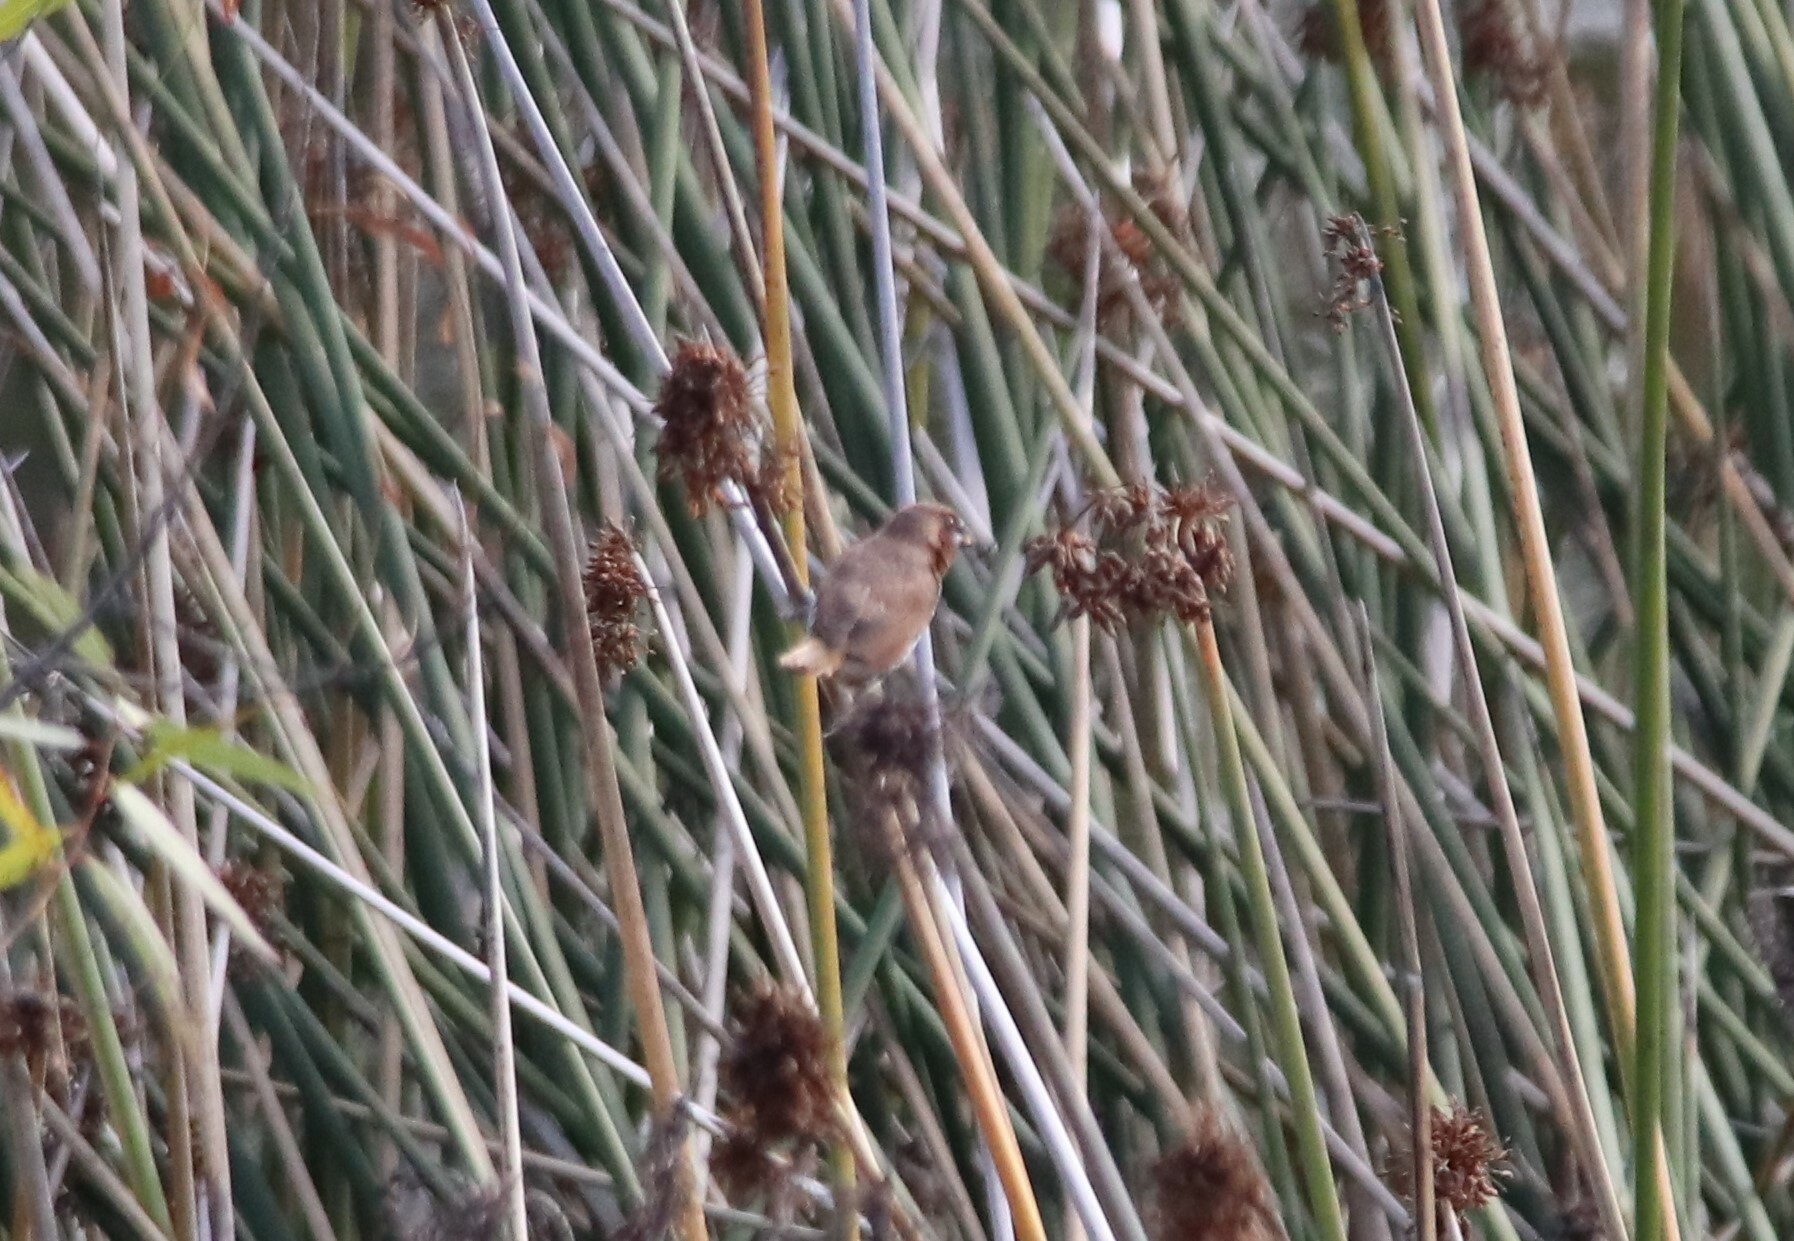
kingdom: Animalia
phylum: Chordata
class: Aves
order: Passeriformes
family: Estrildidae
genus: Lonchura
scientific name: Lonchura punctulata
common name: Scaly-breasted munia
